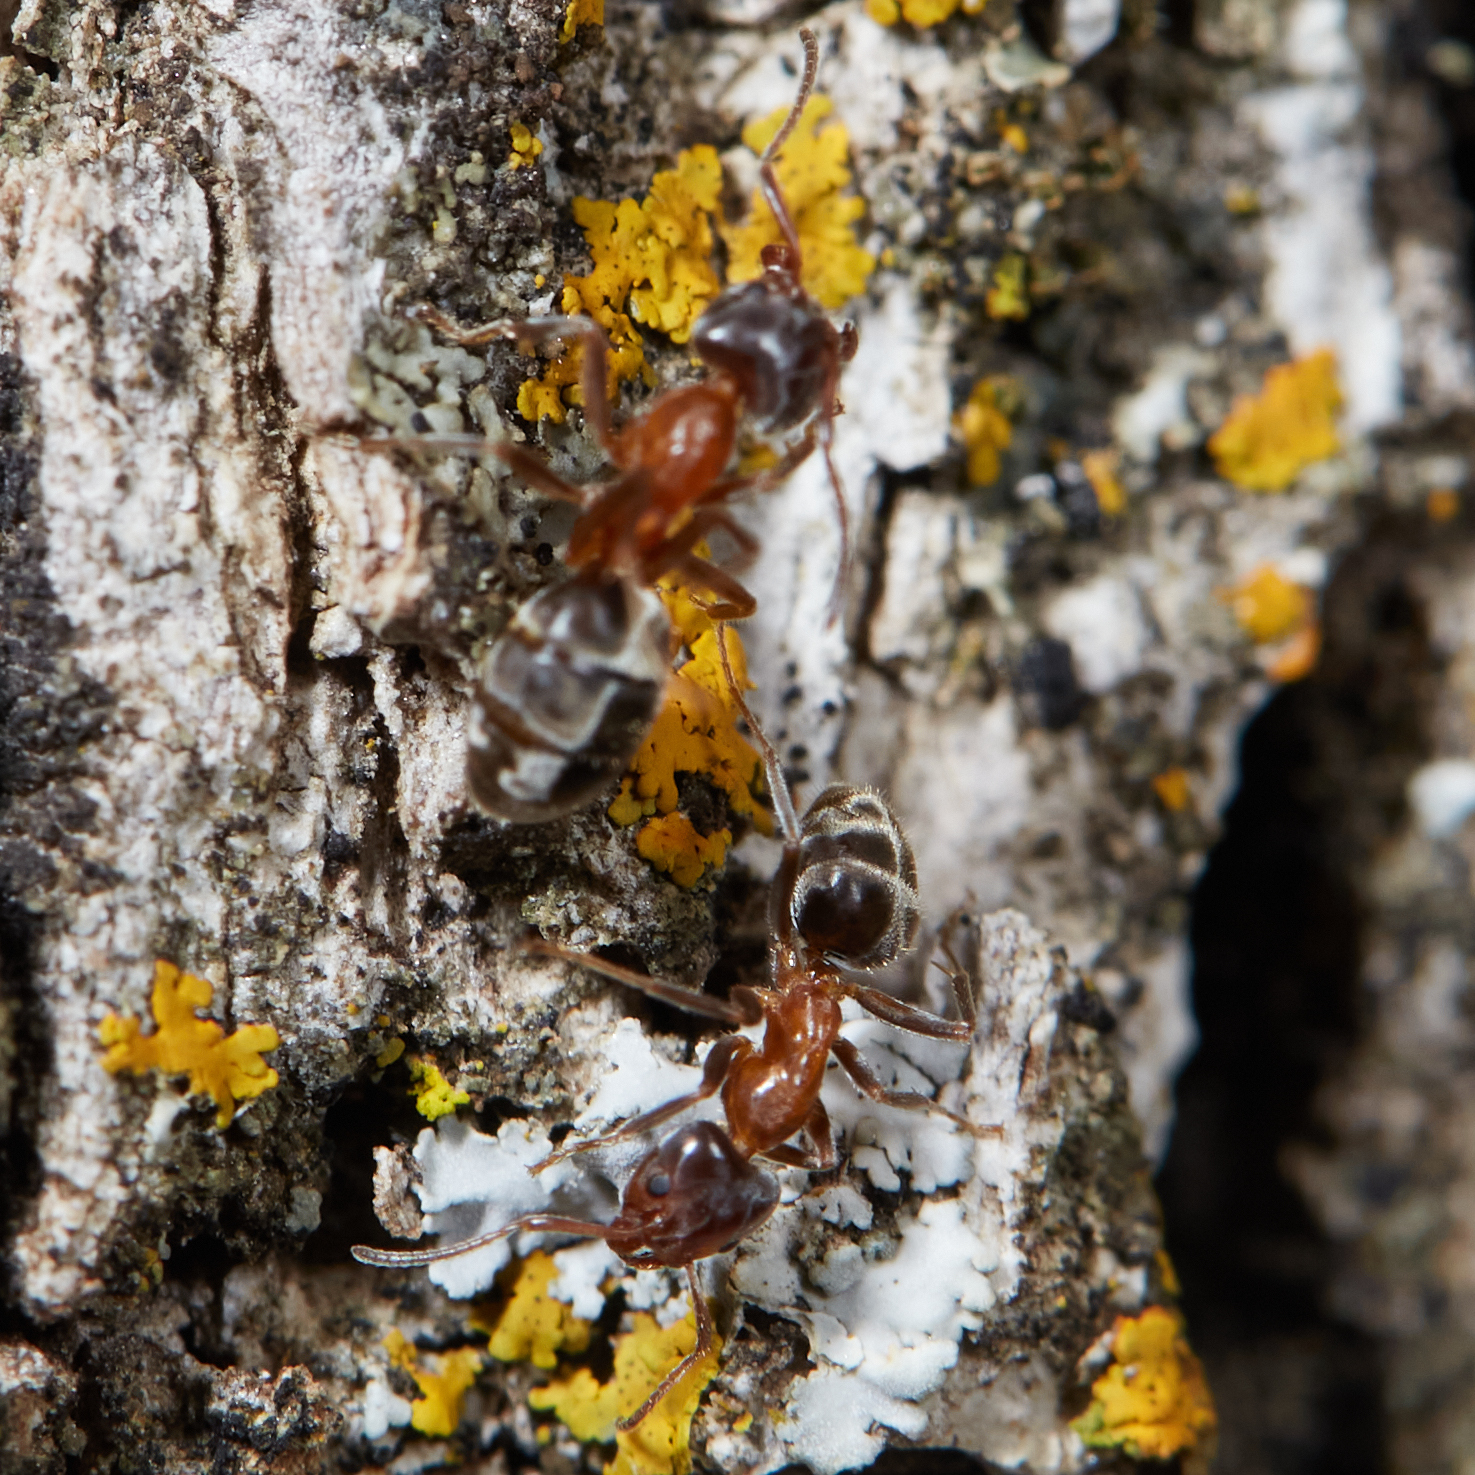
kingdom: Animalia
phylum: Arthropoda
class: Insecta
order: Hymenoptera
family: Formicidae
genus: Liometopum
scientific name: Liometopum occidentale
